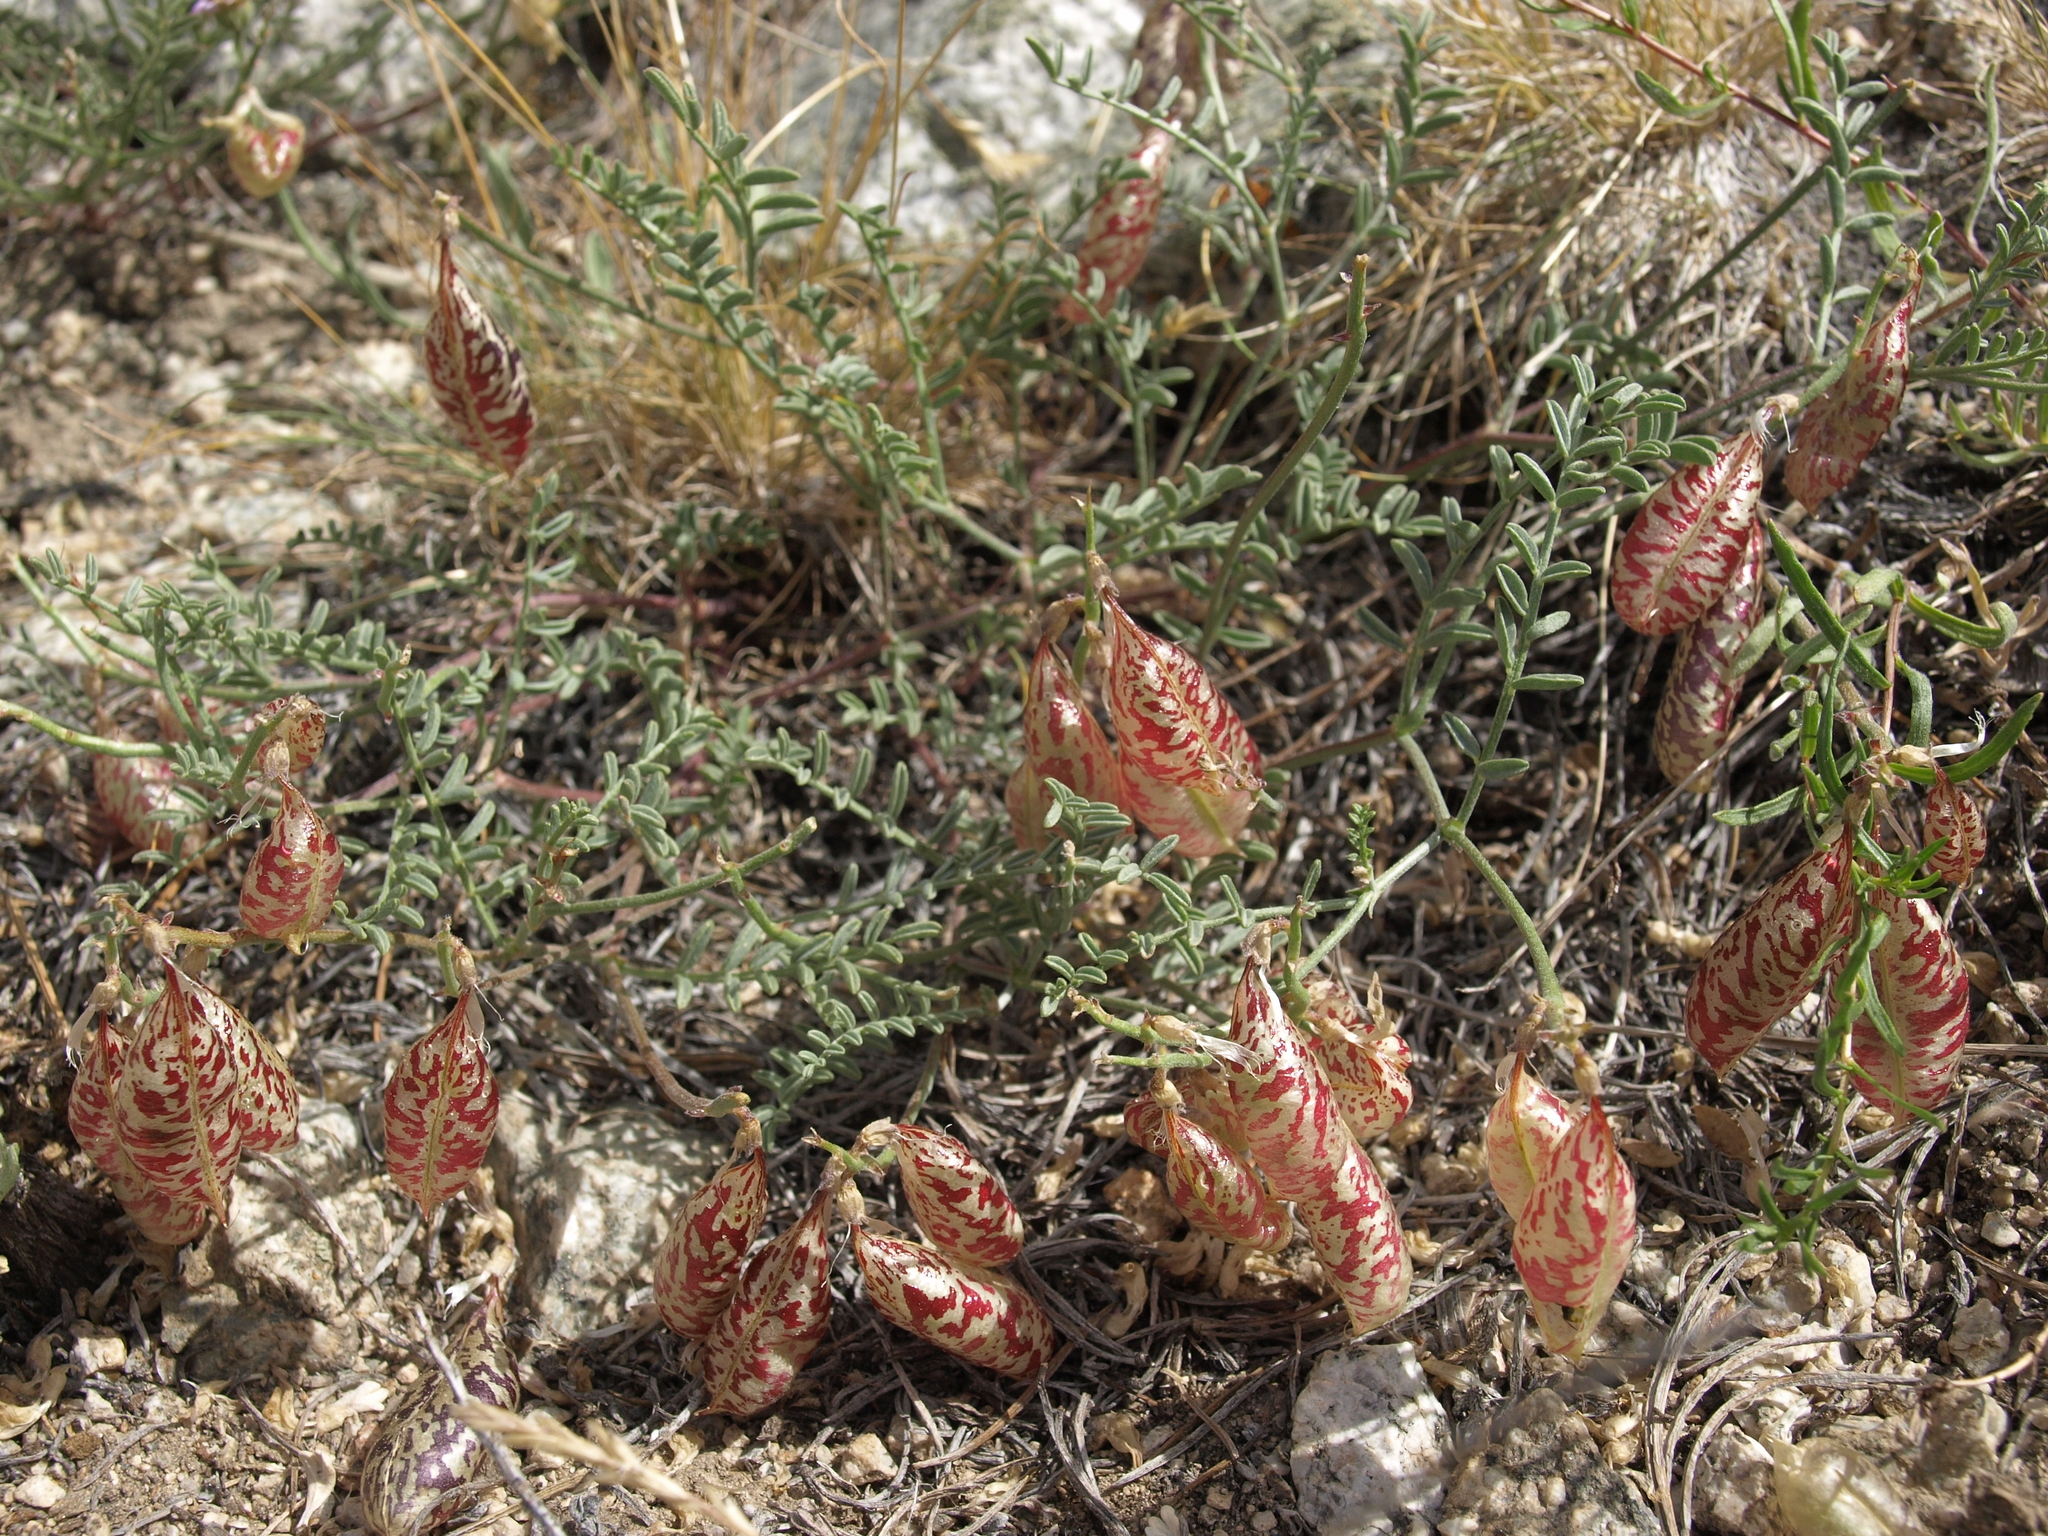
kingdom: Plantae
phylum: Tracheophyta
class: Magnoliopsida
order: Fabales
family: Fabaceae
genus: Astragalus
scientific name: Astragalus whitneyi
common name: Balloonpod milkvetch
